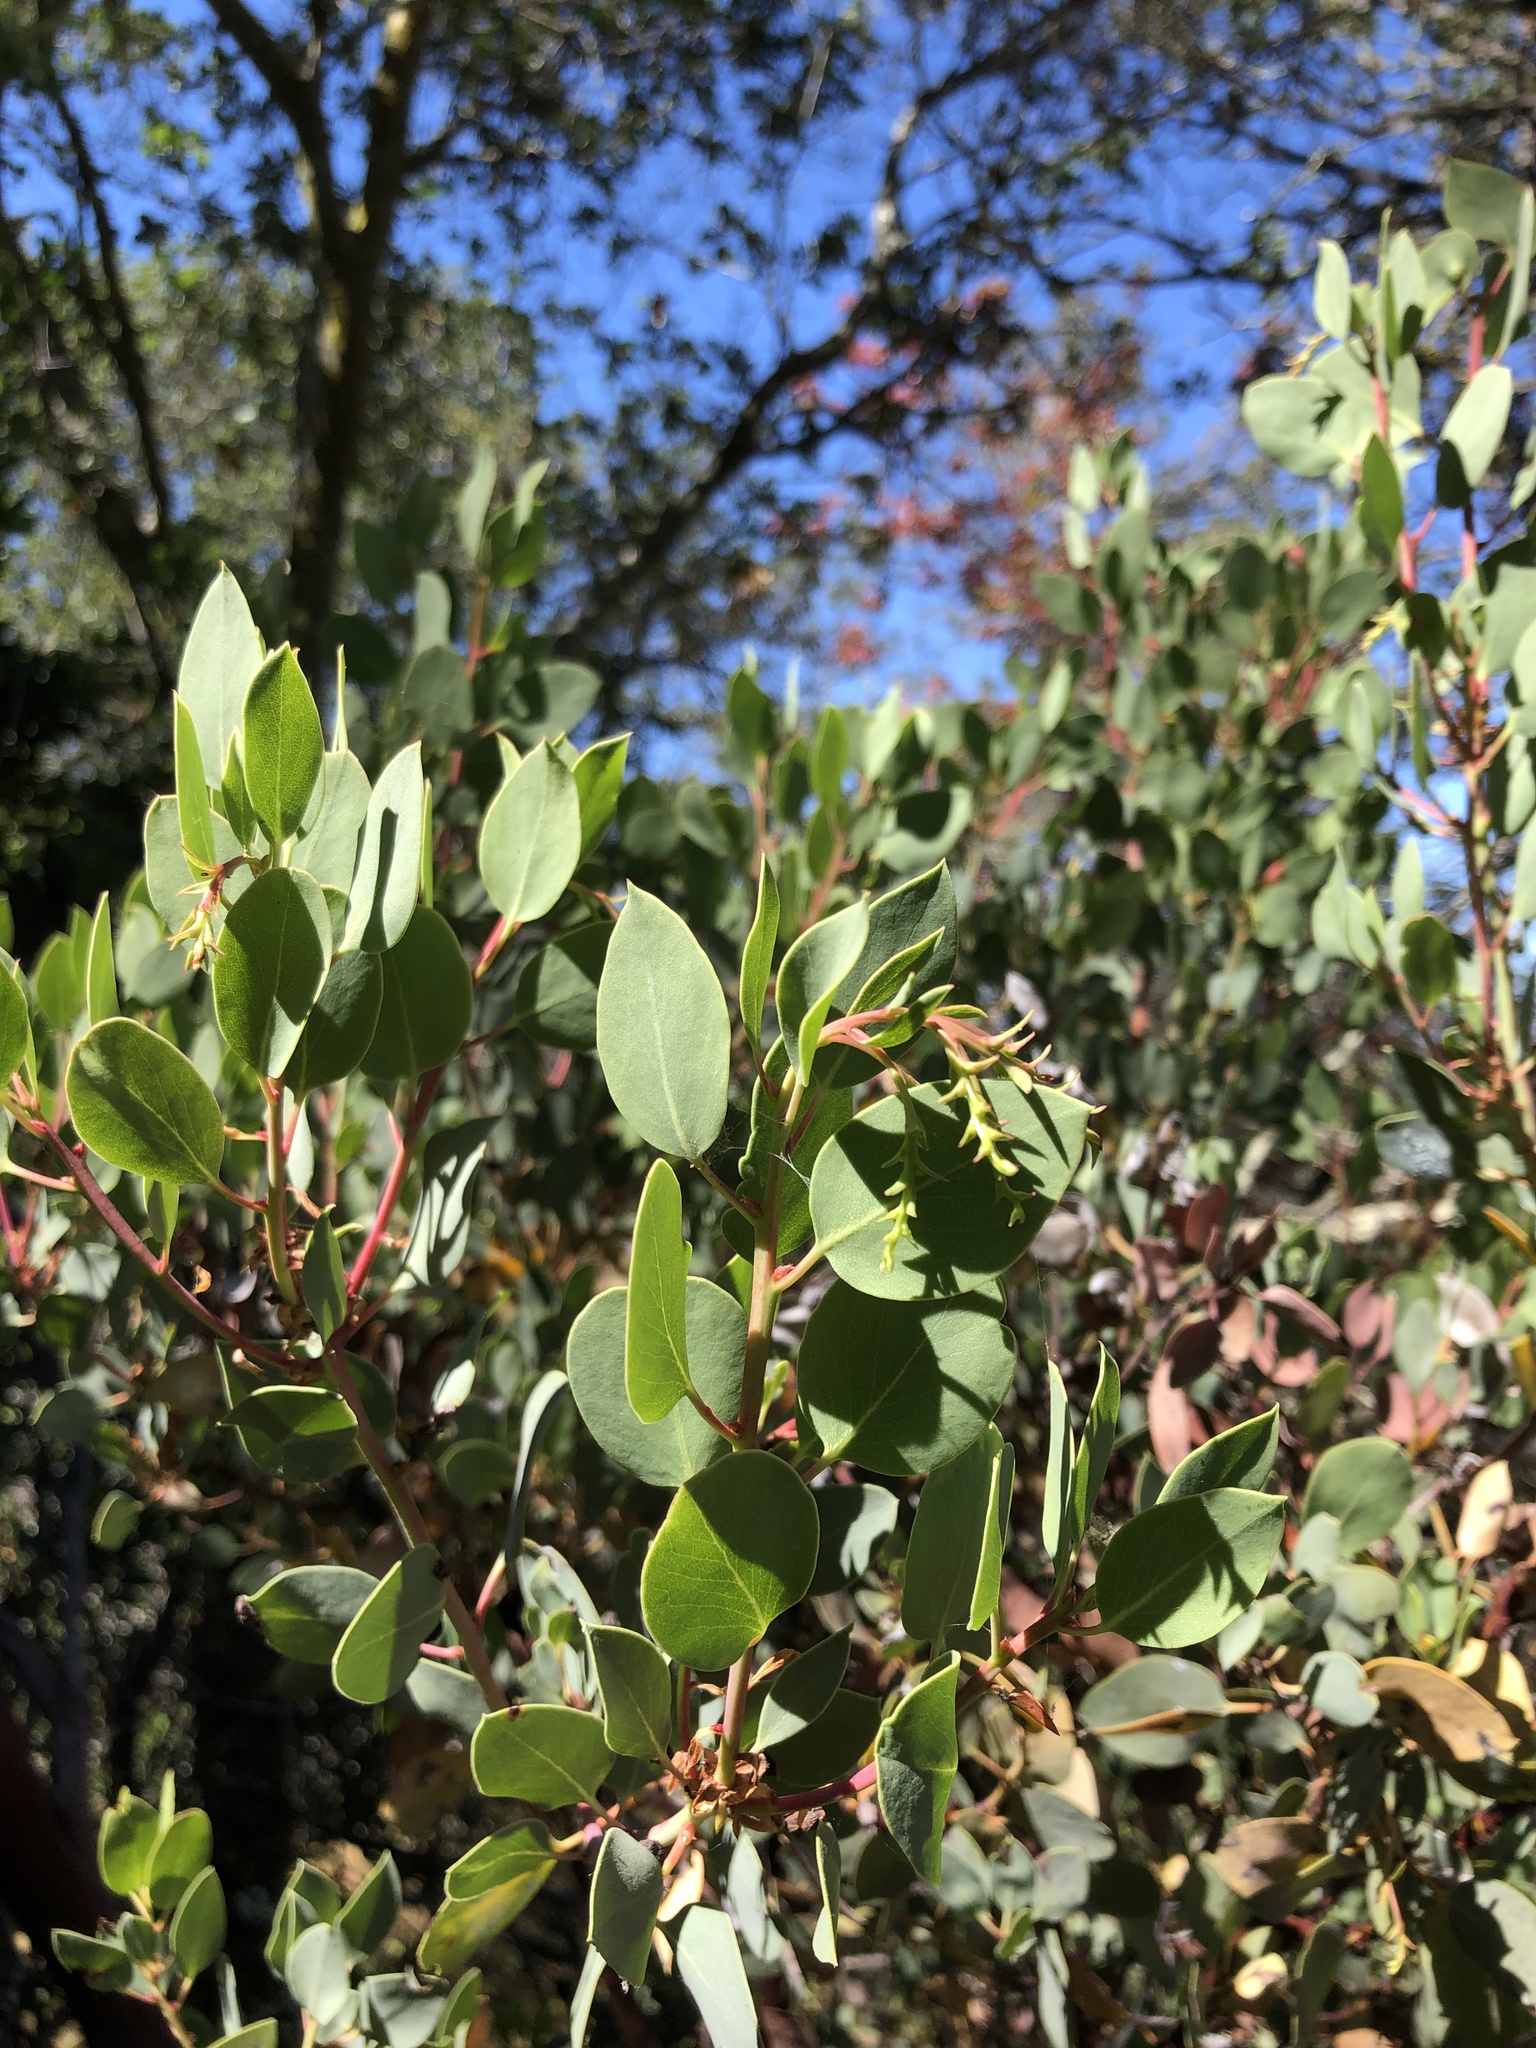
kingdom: Plantae
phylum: Tracheophyta
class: Magnoliopsida
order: Ericales
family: Ericaceae
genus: Arctostaphylos
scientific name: Arctostaphylos glauca
